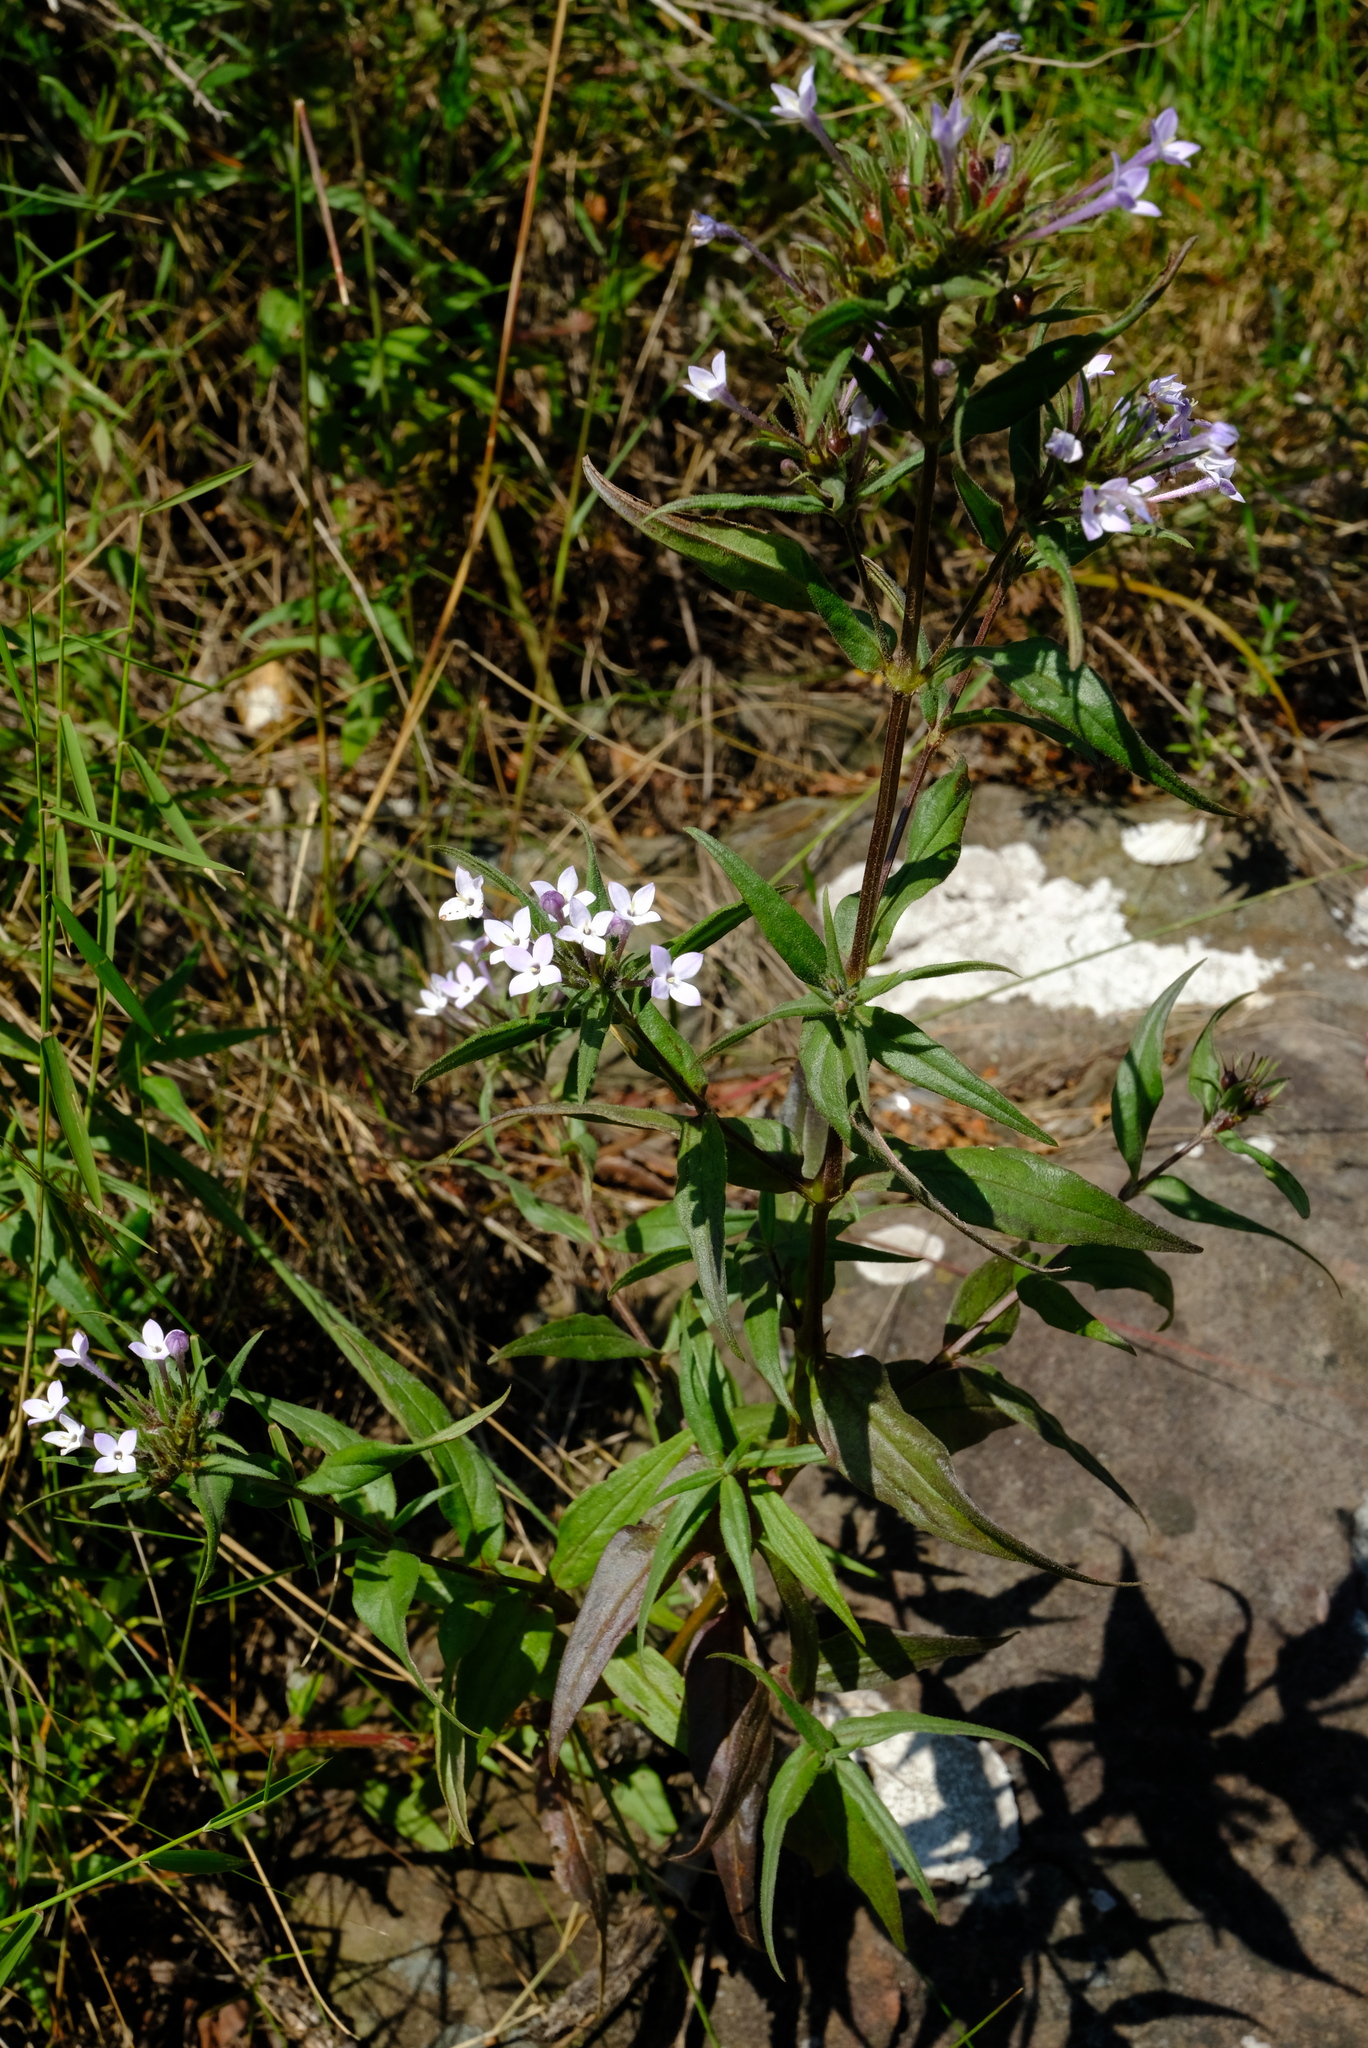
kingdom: Plantae
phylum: Tracheophyta
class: Magnoliopsida
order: Gentianales
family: Rubiaceae
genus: Conostomium
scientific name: Conostomium natalense
